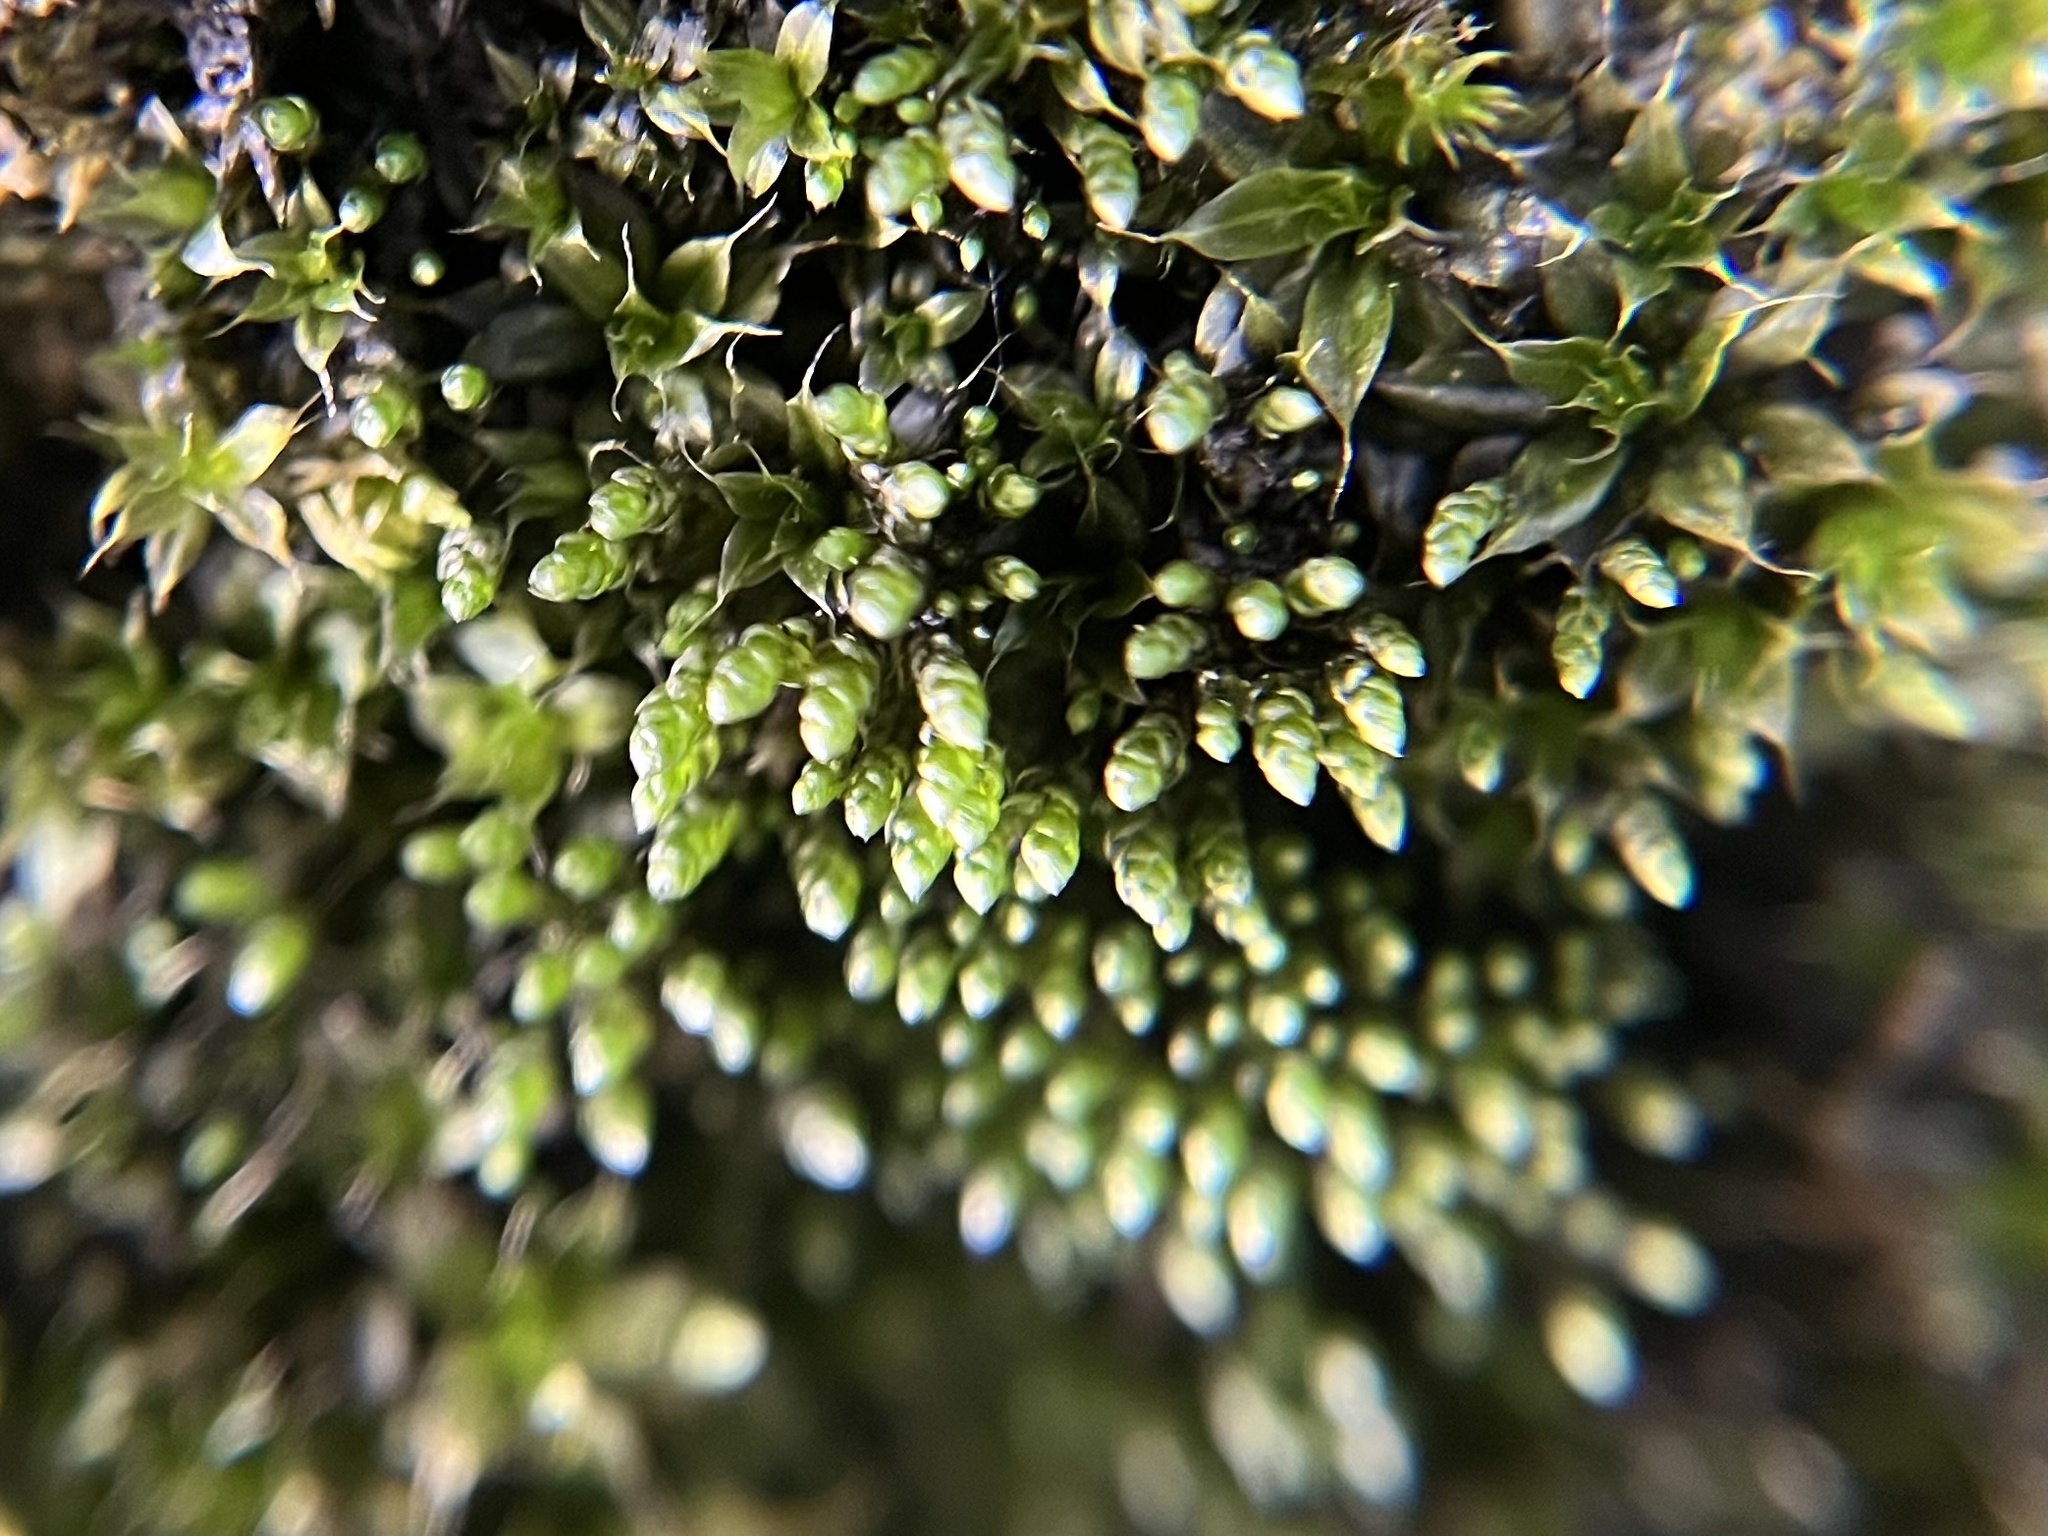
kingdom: Plantae
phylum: Bryophyta
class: Bryopsida
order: Bryales
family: Bryaceae
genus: Bryum
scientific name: Bryum argenteum
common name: Silver-moss
